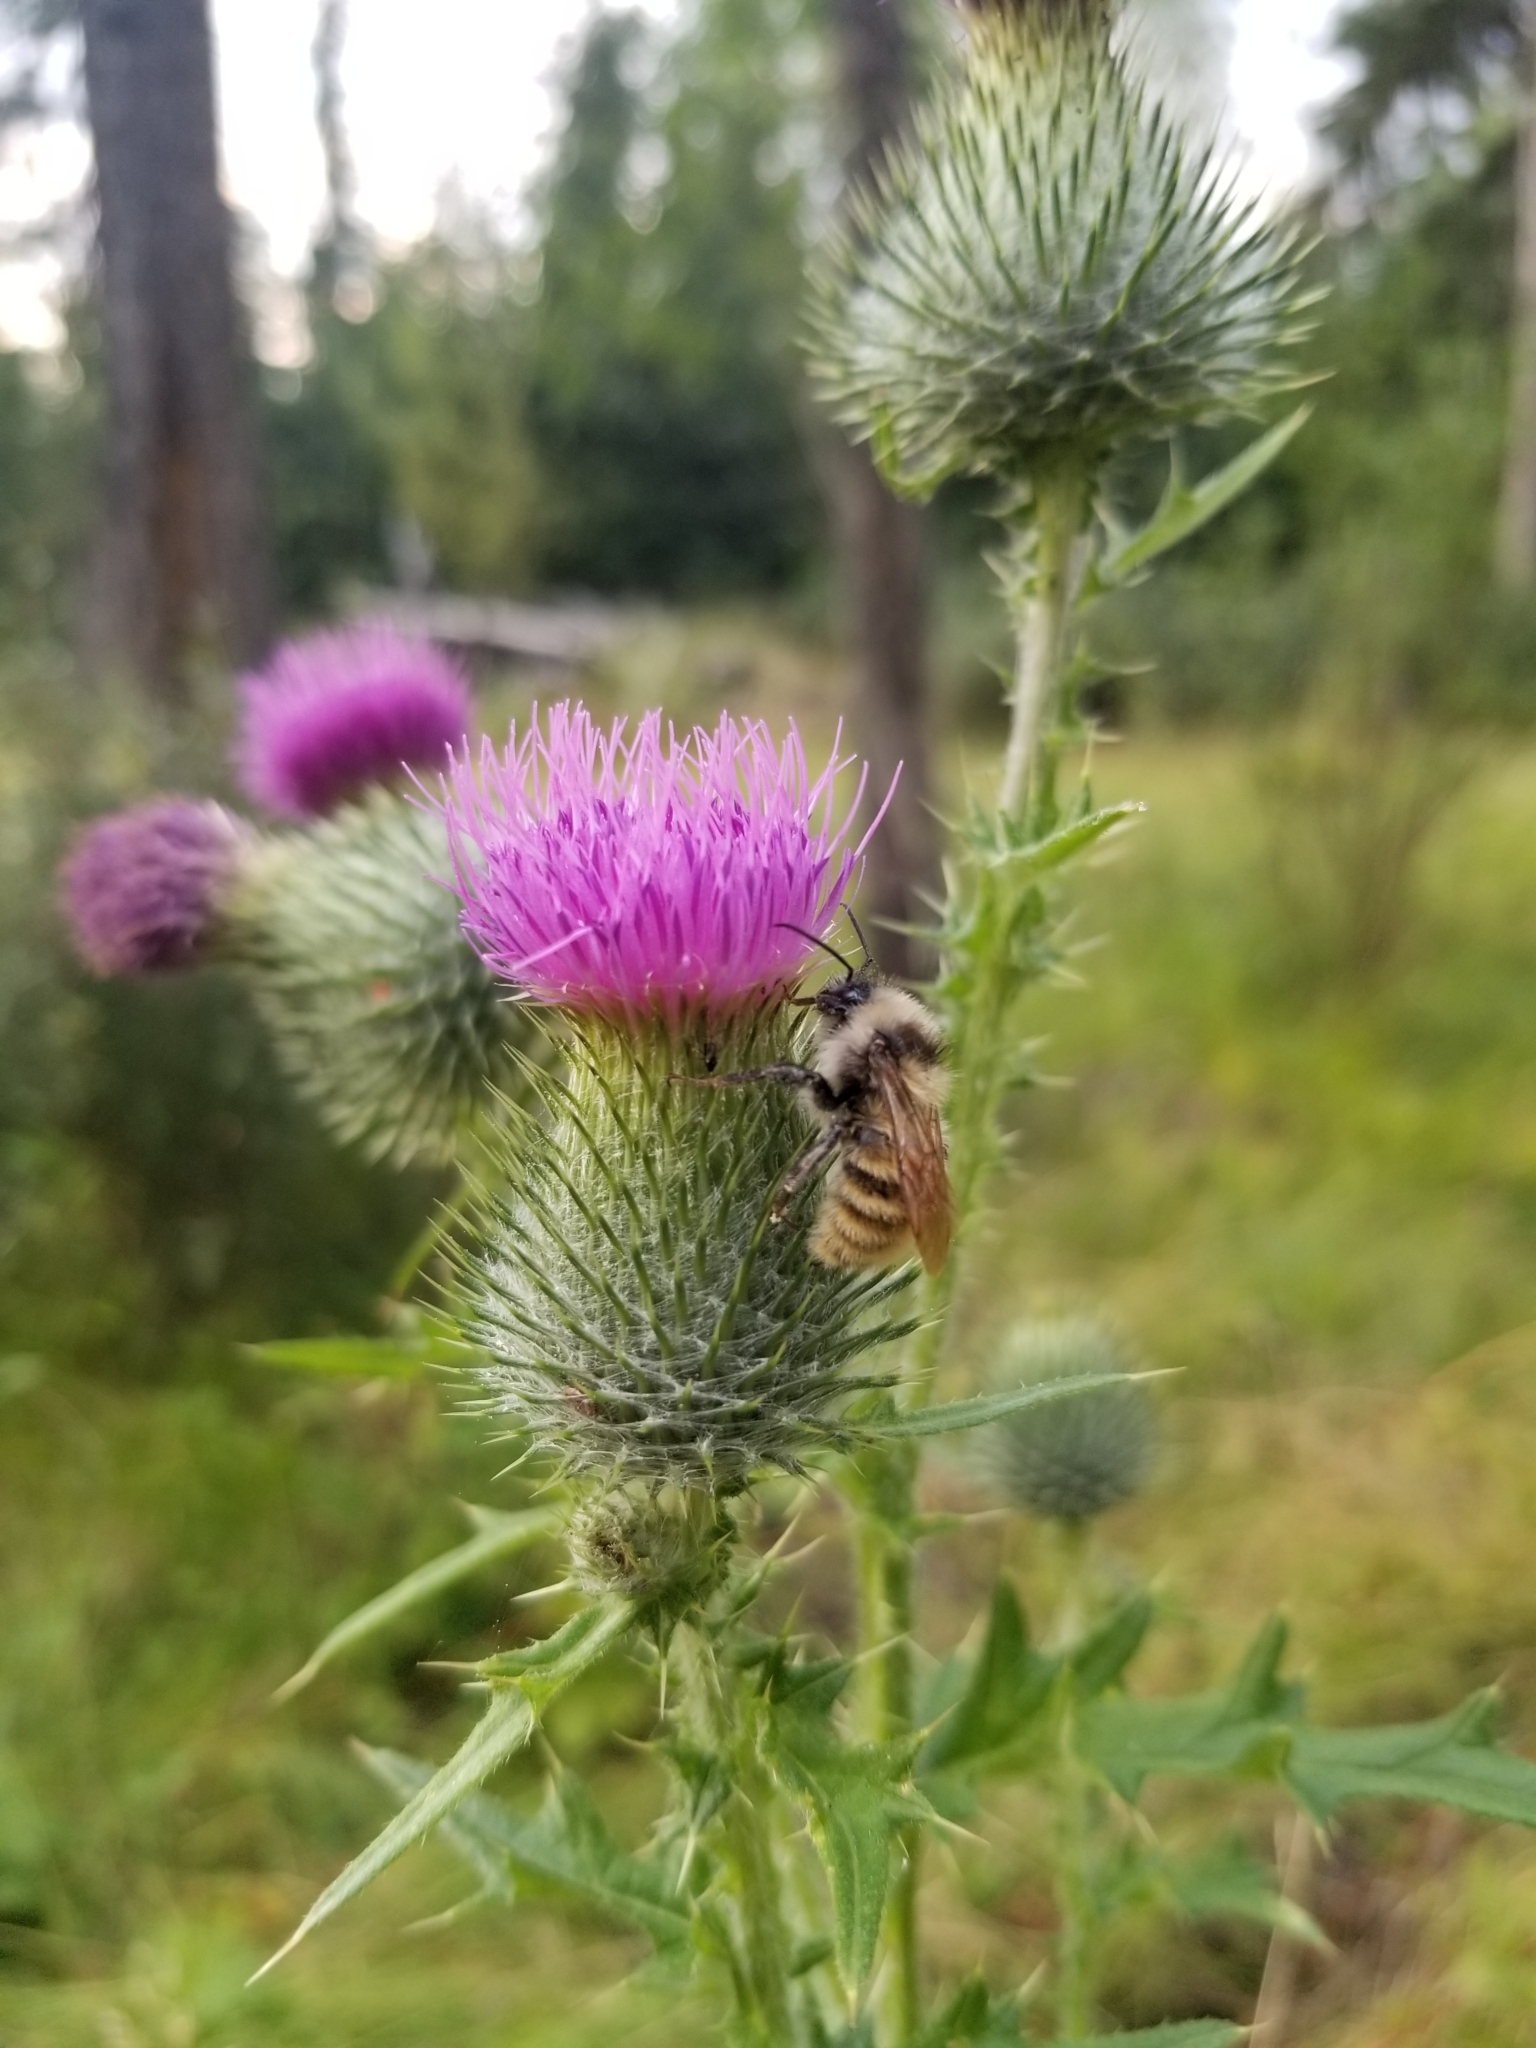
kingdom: Animalia
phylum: Arthropoda
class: Insecta
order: Hymenoptera
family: Apidae
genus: Bombus
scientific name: Bombus appositus
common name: White-shouldered bumble bee
